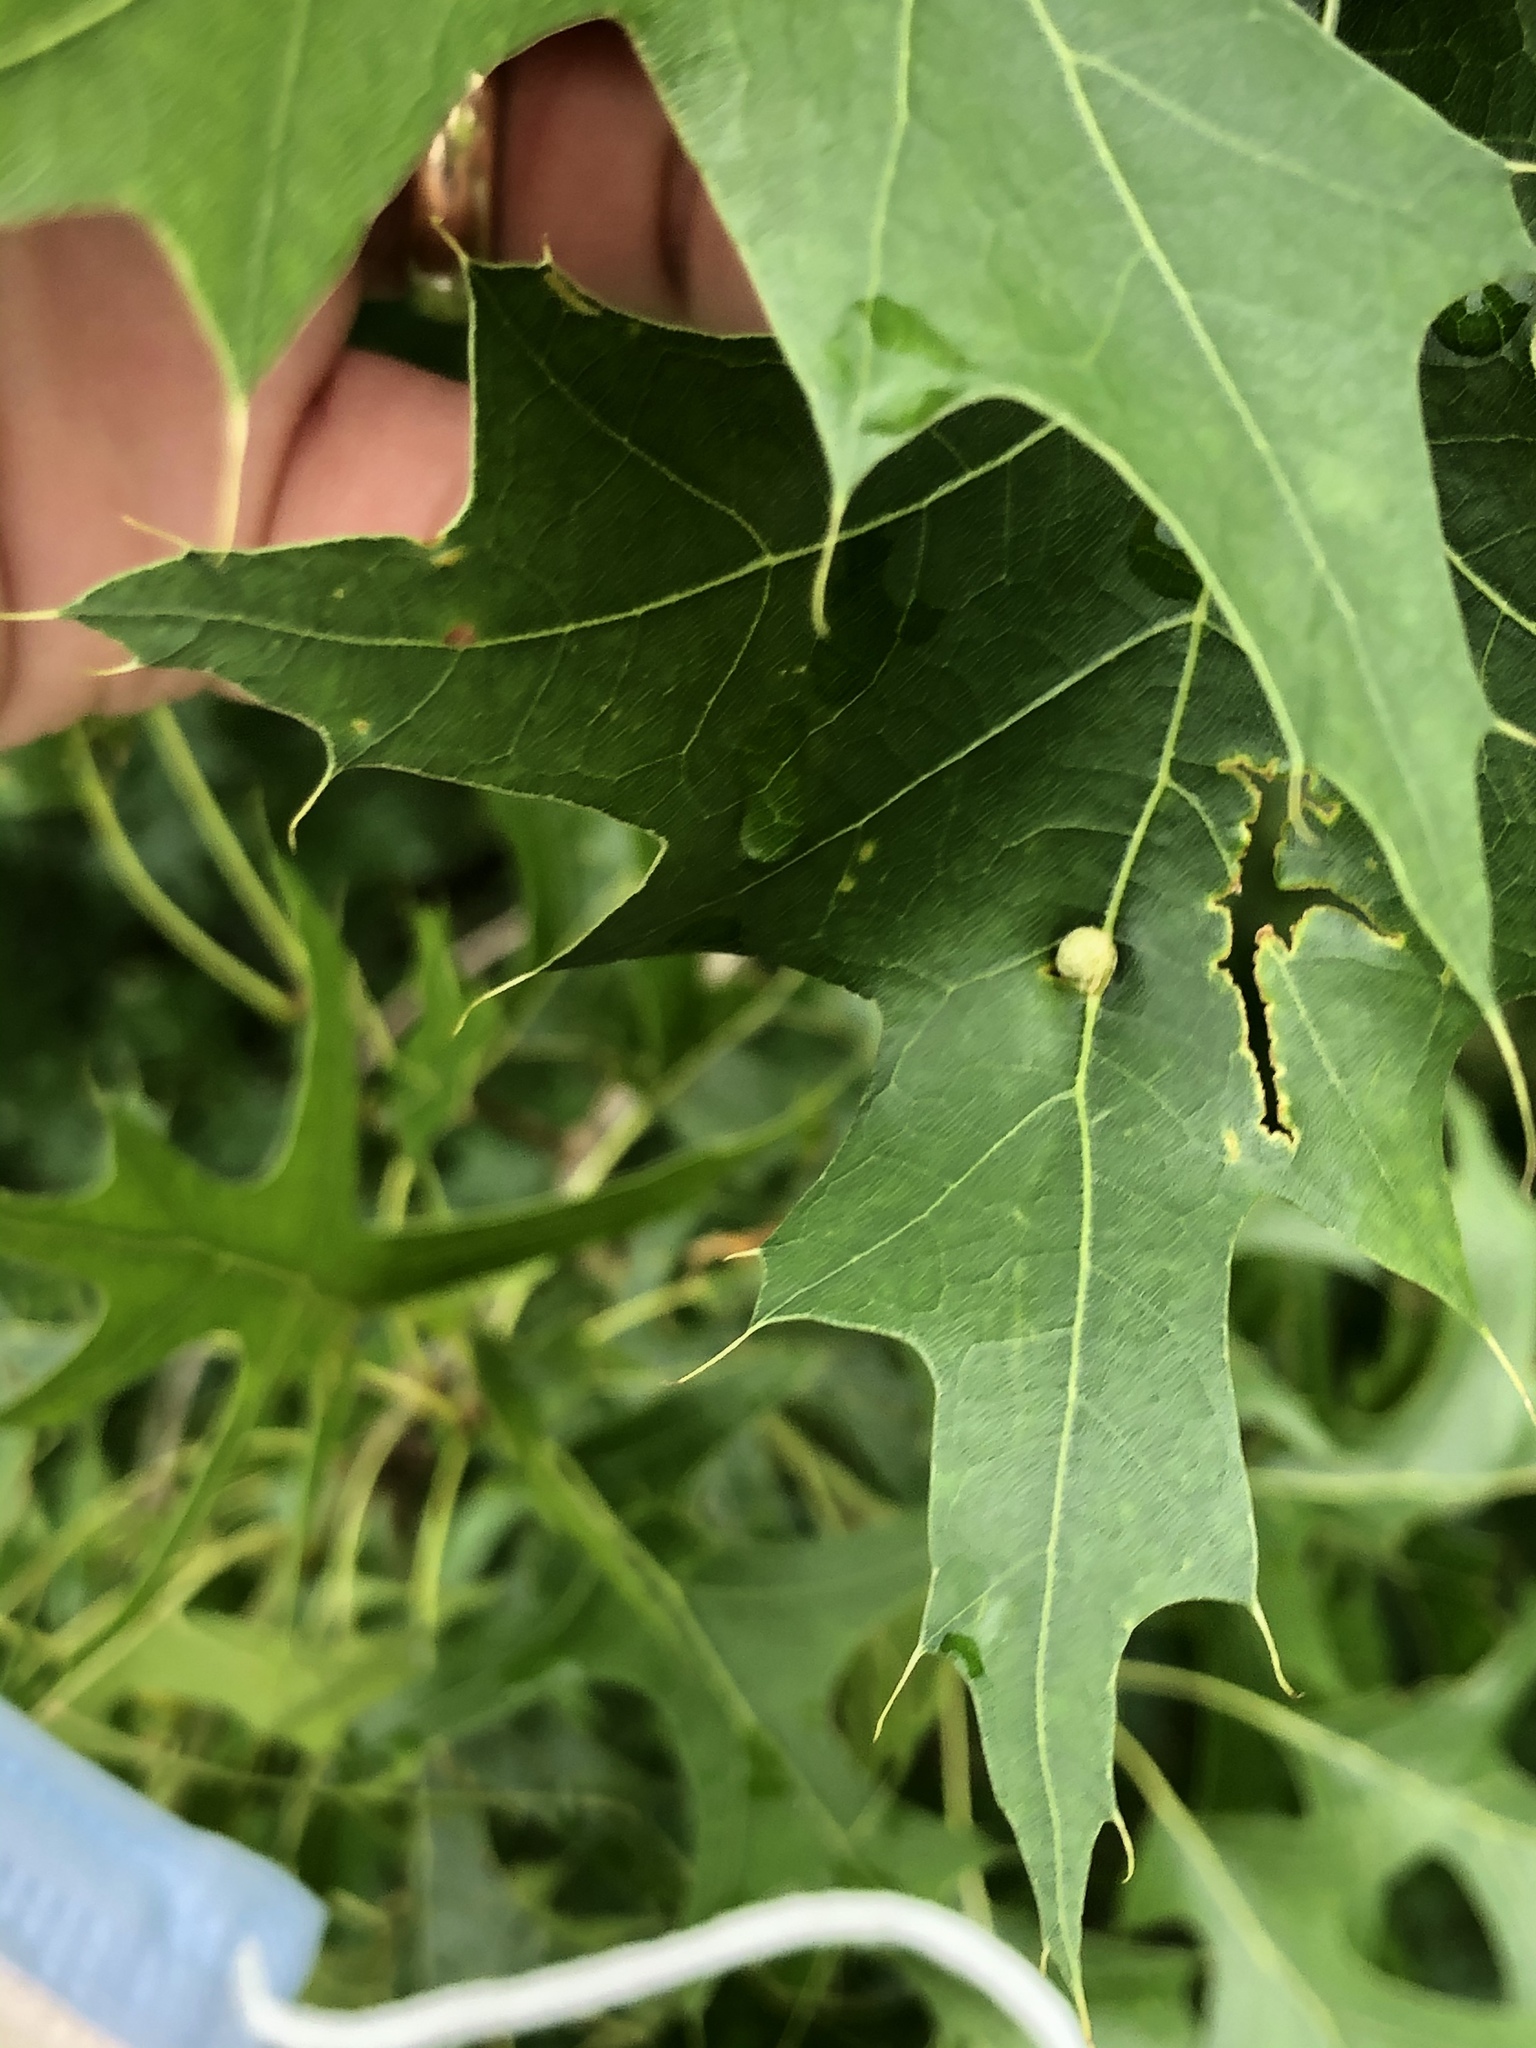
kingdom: Animalia
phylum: Arthropoda
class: Insecta
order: Diptera
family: Cecidomyiidae
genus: Polystepha
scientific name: Polystepha pilulae
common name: Oak leaf gall midge
